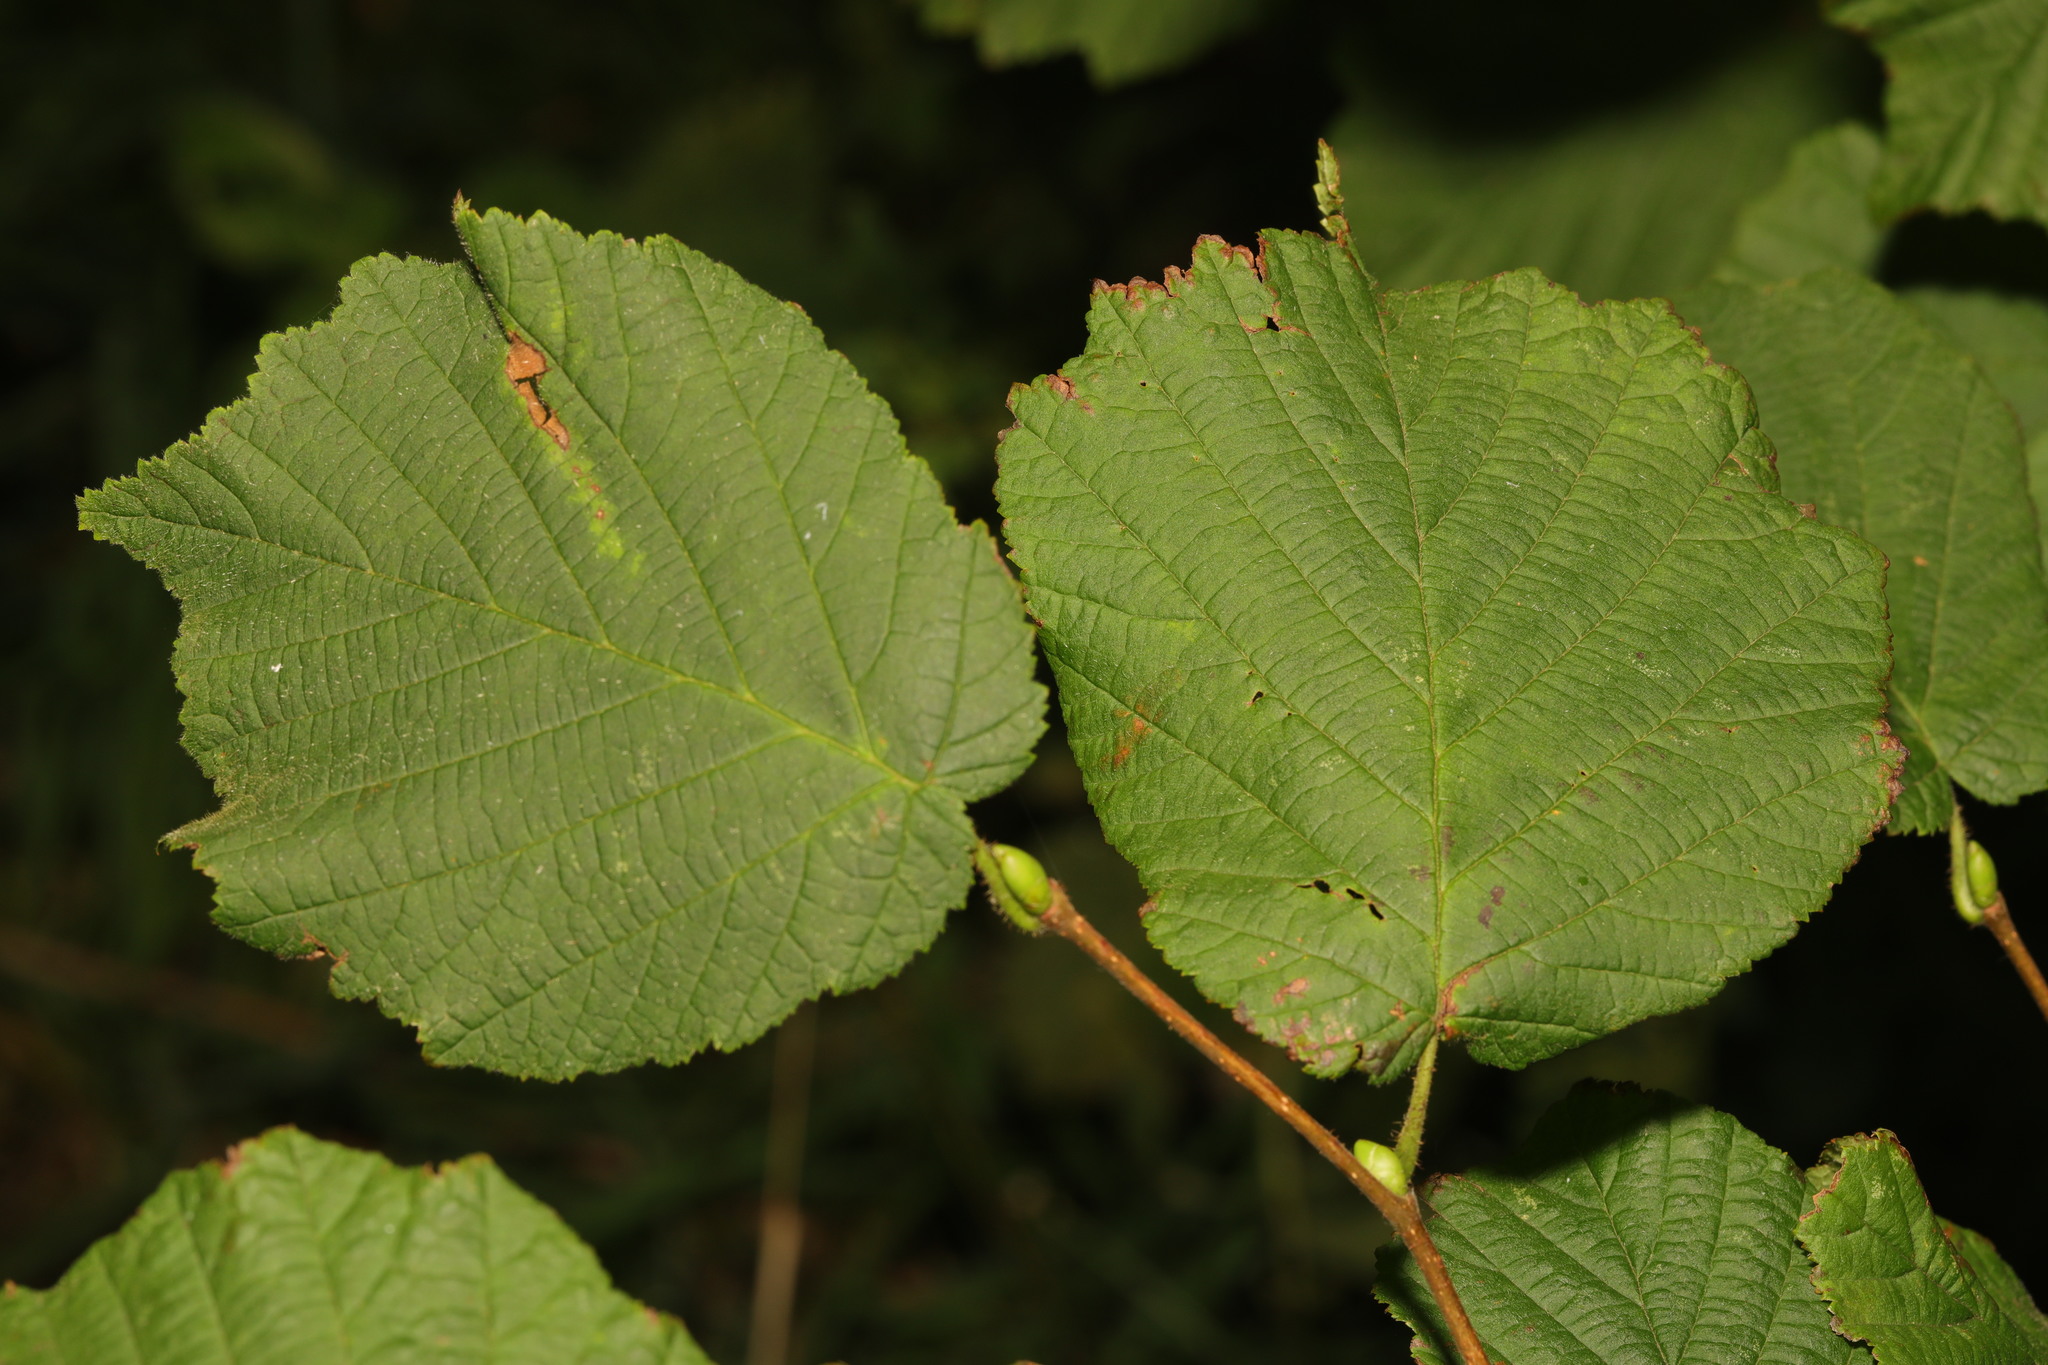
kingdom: Plantae
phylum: Tracheophyta
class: Magnoliopsida
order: Fagales
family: Betulaceae
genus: Corylus
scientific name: Corylus avellana
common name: European hazel
